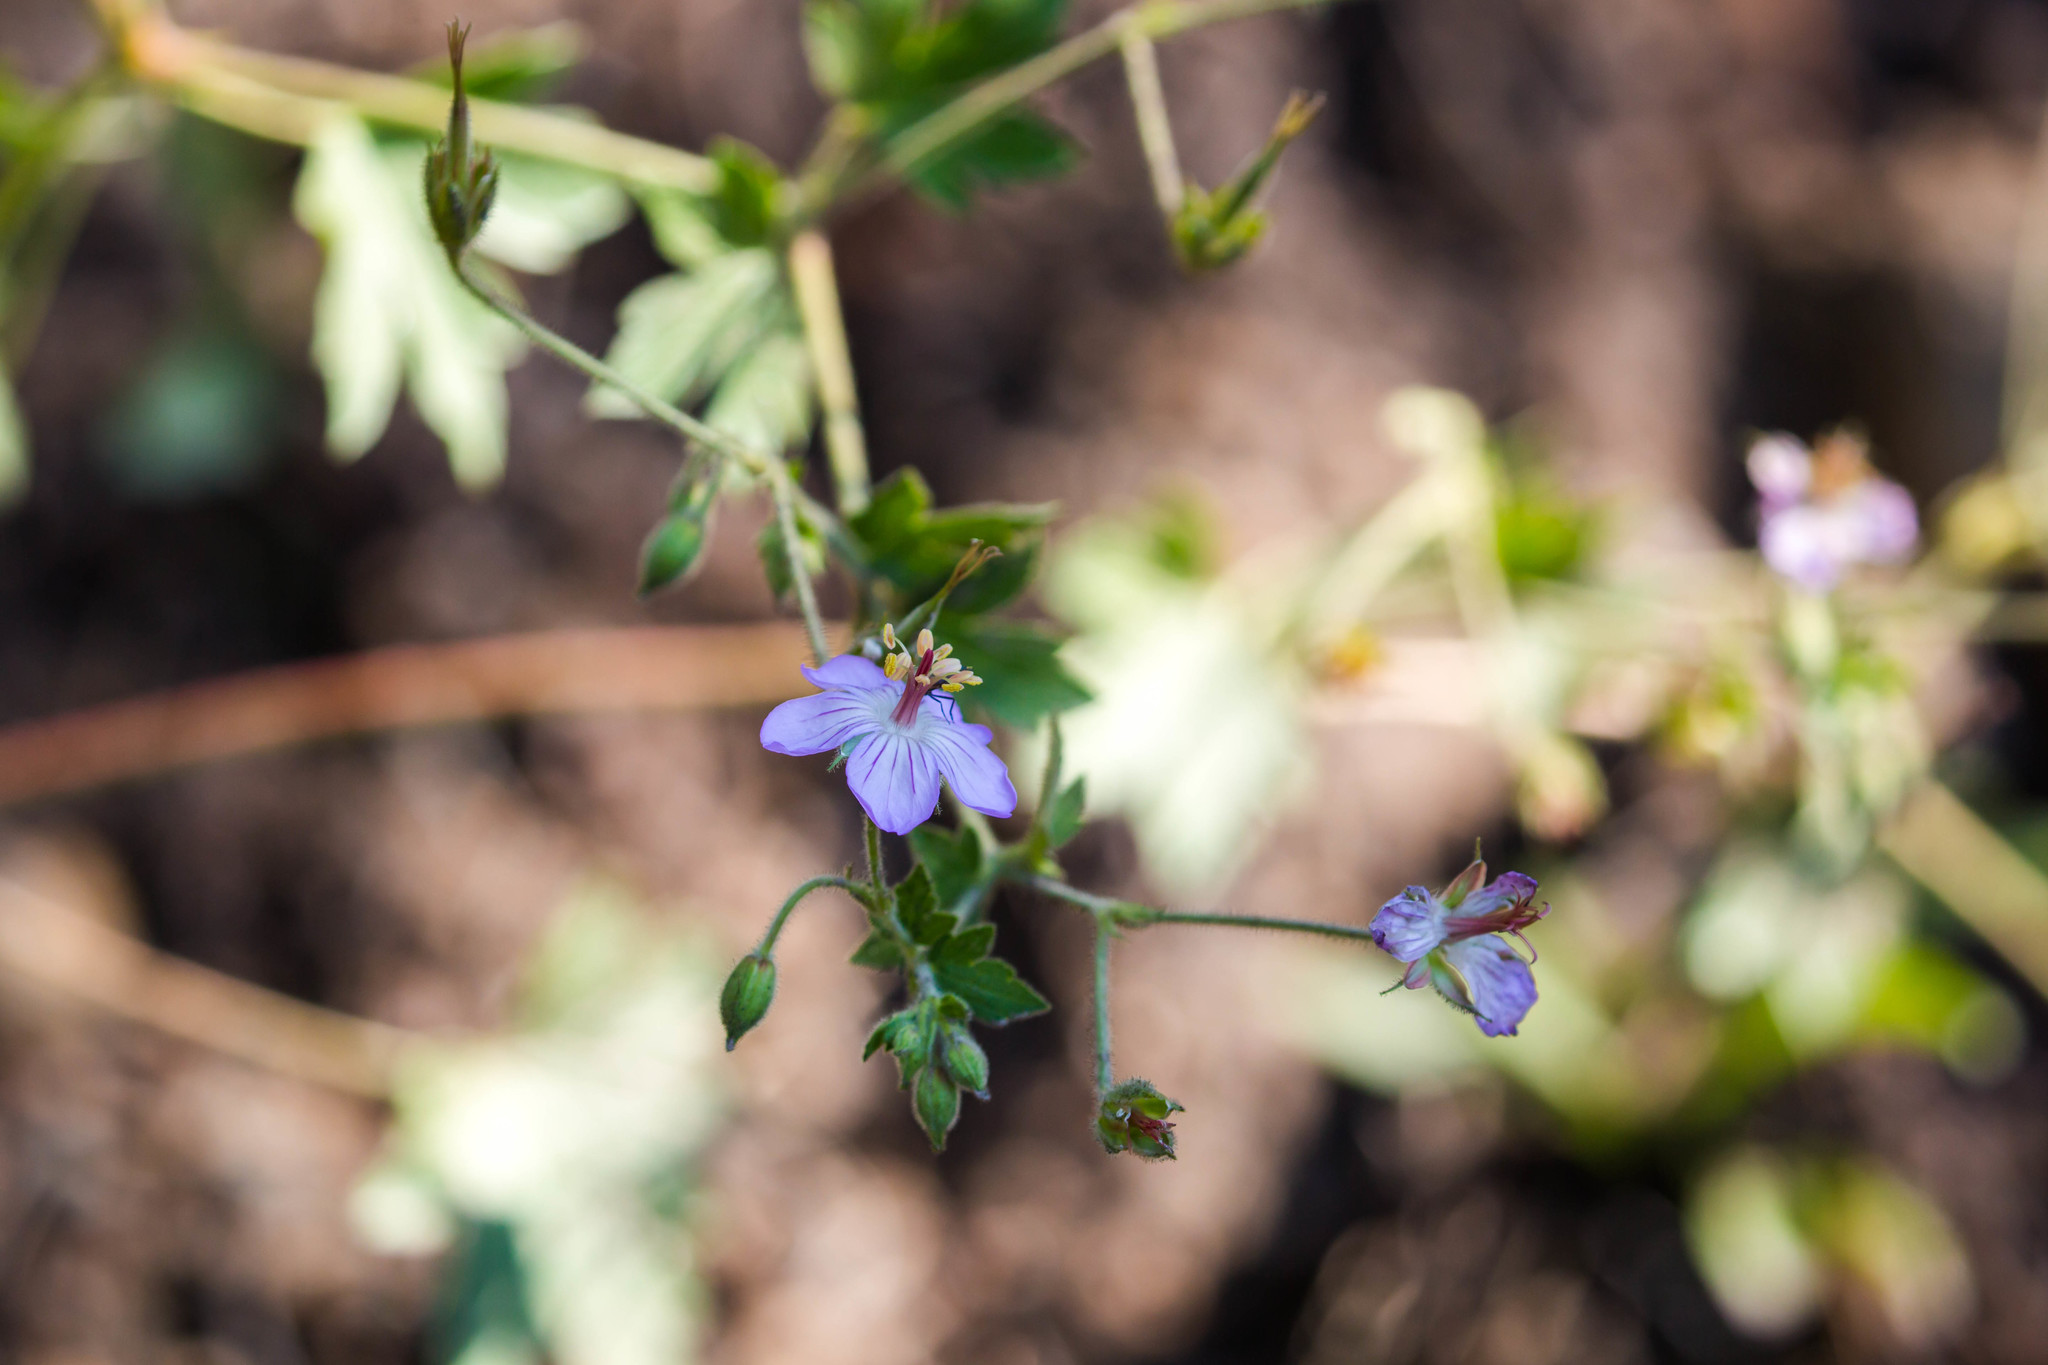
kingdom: Plantae
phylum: Tracheophyta
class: Magnoliopsida
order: Geraniales
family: Geraniaceae
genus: Geranium
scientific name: Geranium caespitosum
